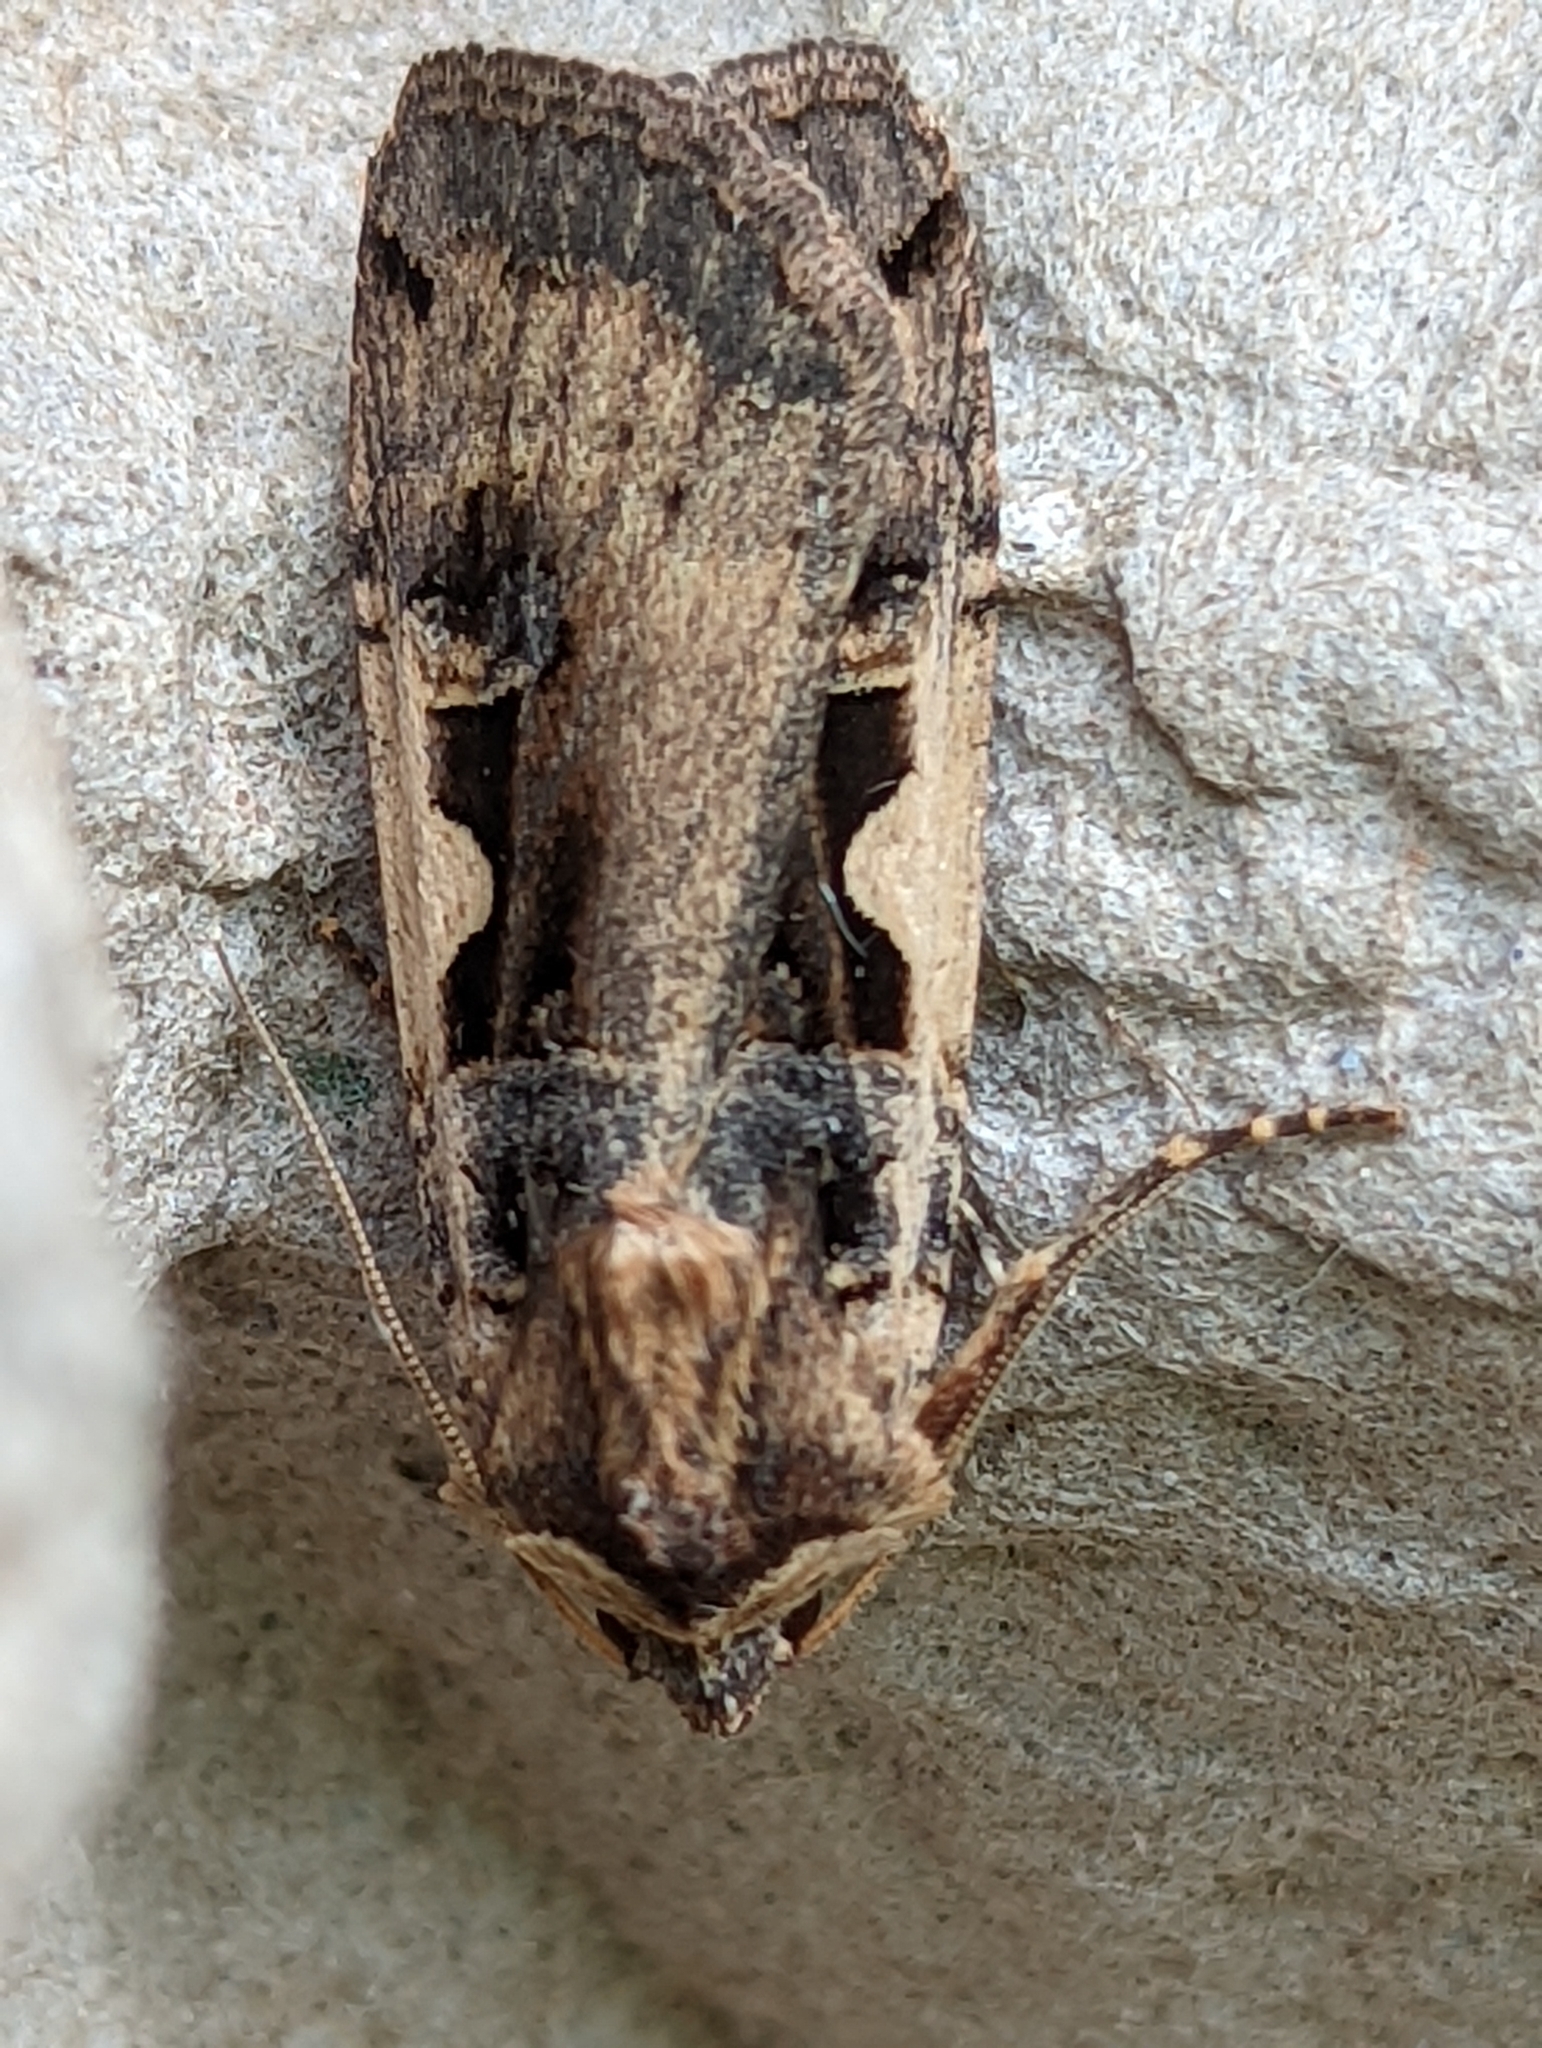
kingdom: Animalia
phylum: Arthropoda
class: Insecta
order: Lepidoptera
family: Noctuidae
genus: Xestia
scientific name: Xestia c-nigrum
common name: Setaceous hebrew character
